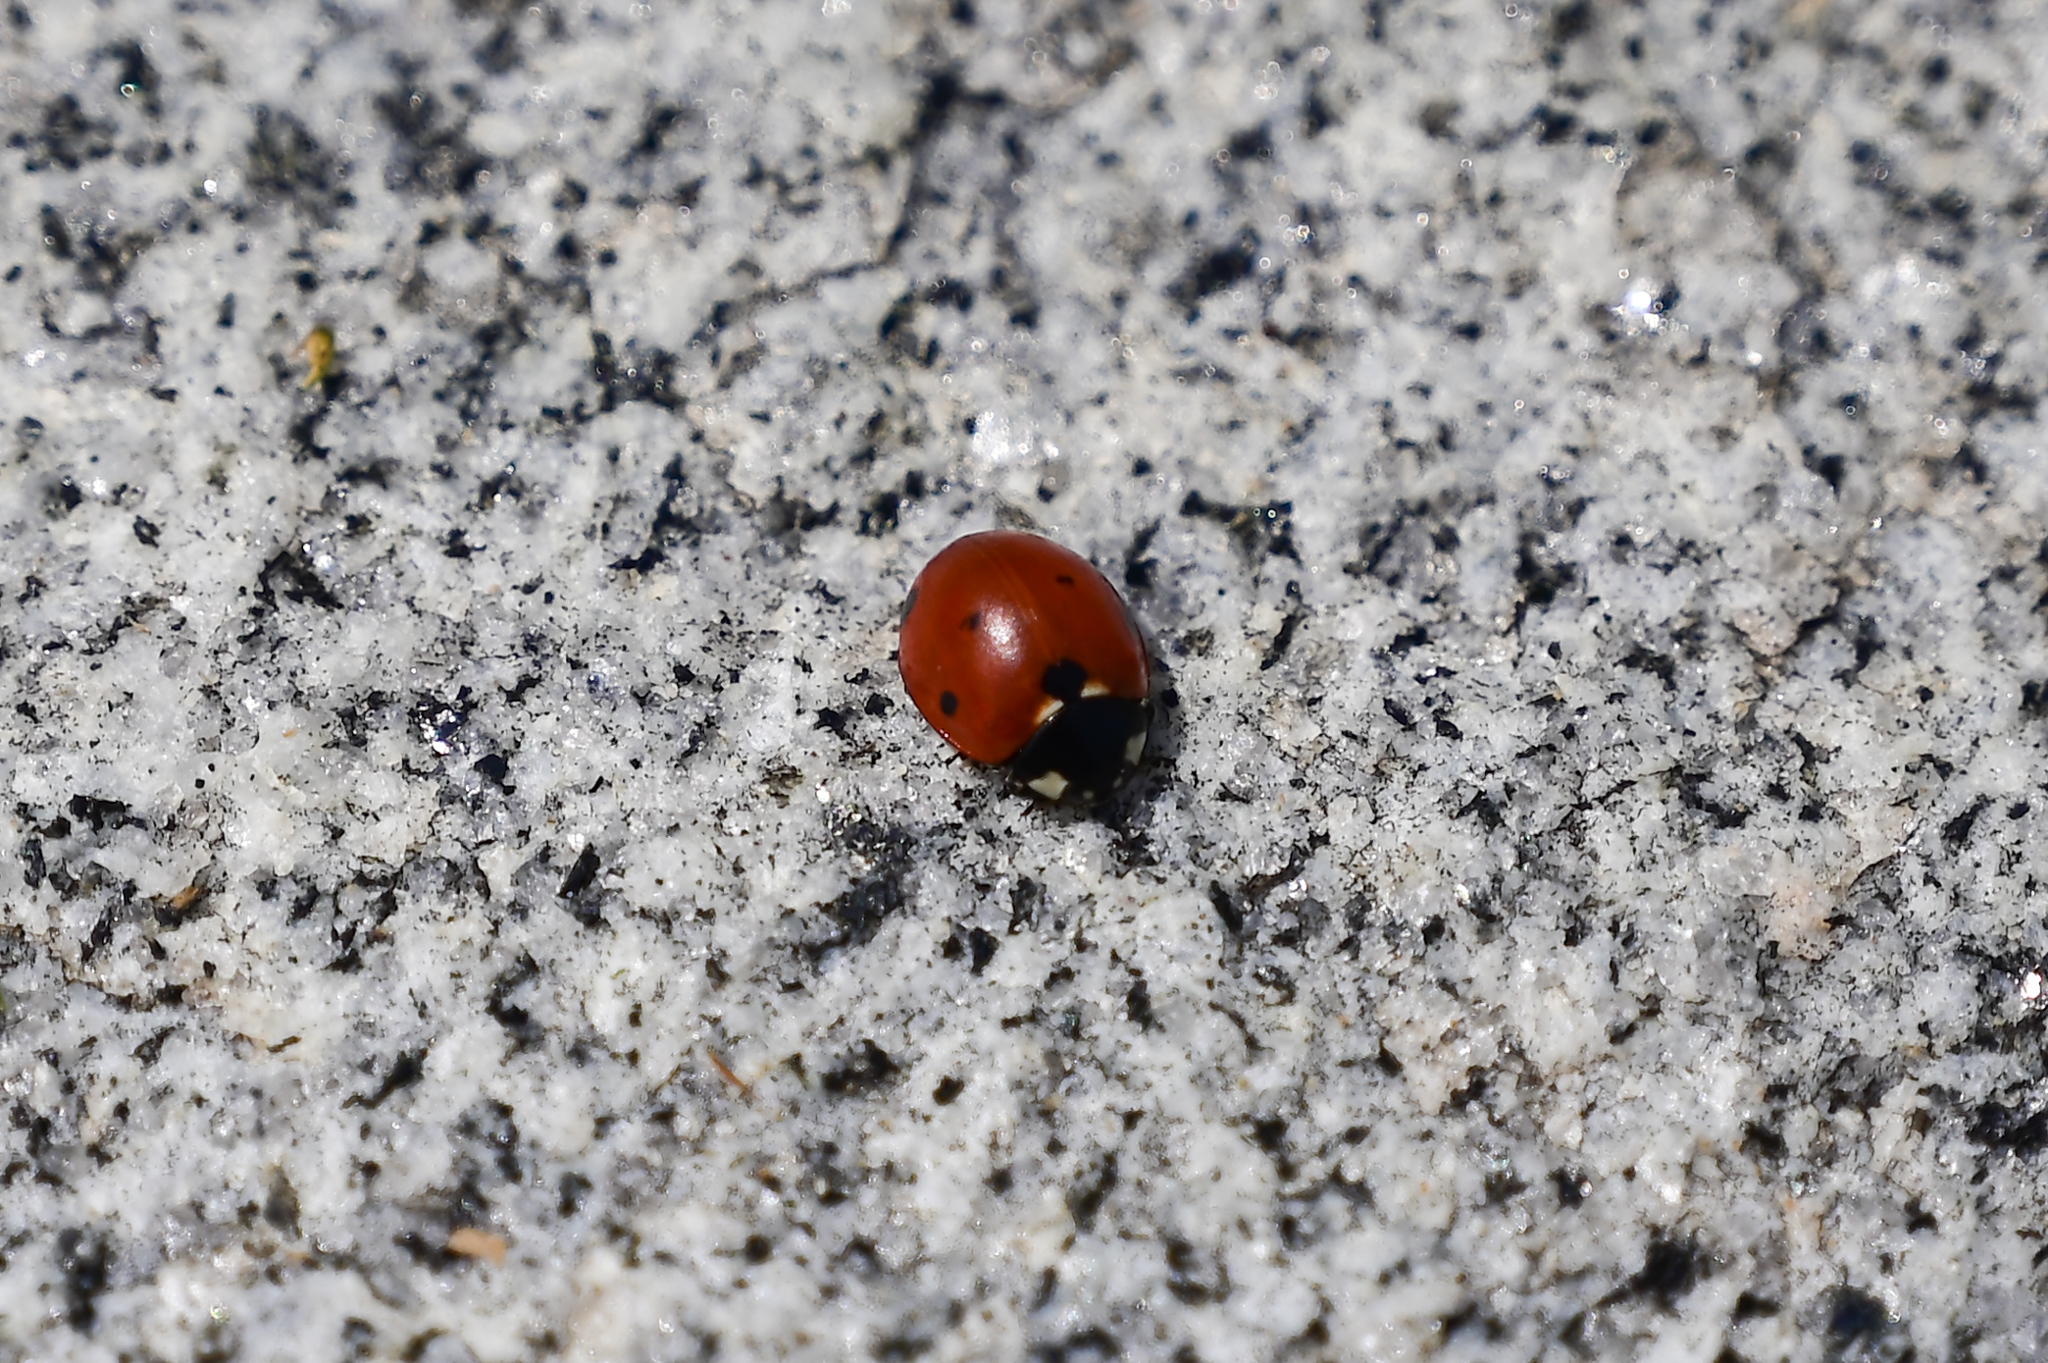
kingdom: Animalia
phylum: Arthropoda
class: Insecta
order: Coleoptera
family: Coccinellidae
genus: Coccinella
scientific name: Coccinella septempunctata
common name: Sevenspotted lady beetle
